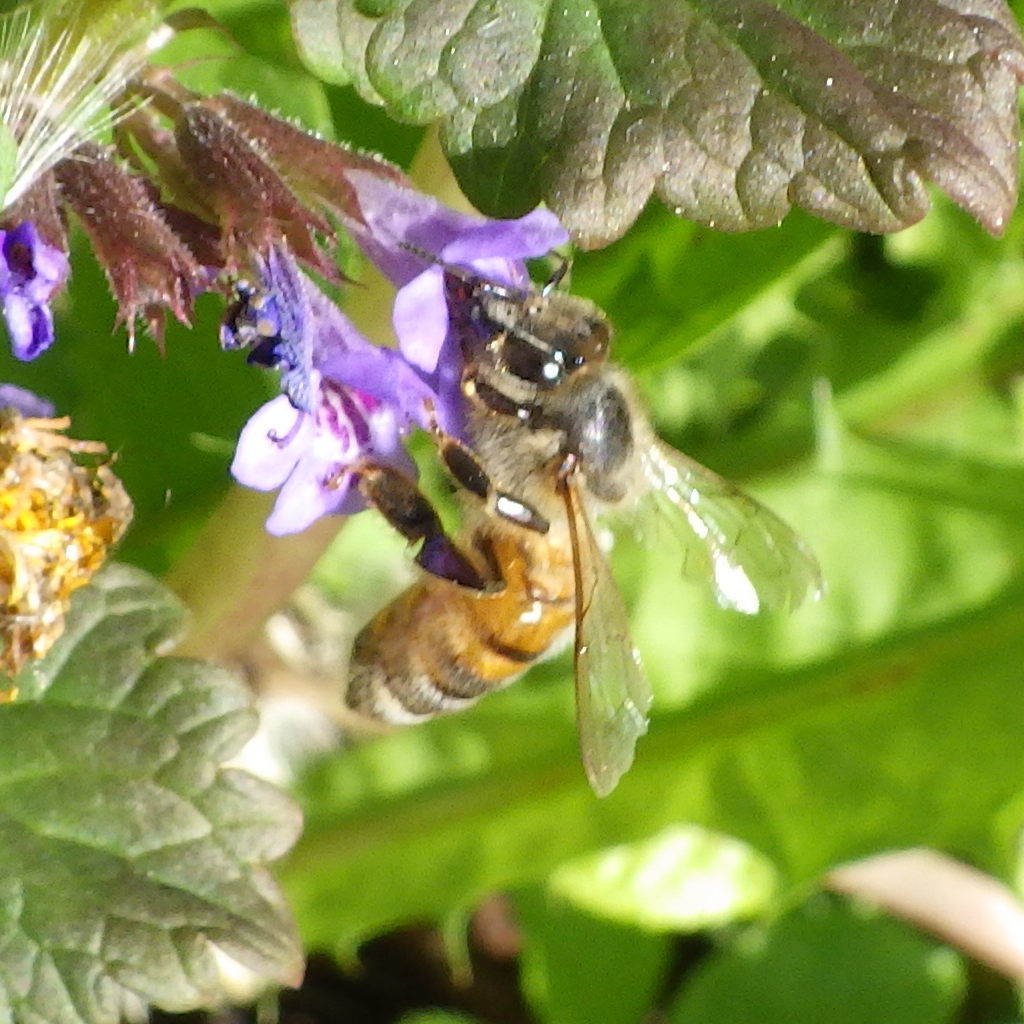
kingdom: Animalia
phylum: Arthropoda
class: Insecta
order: Hymenoptera
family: Apidae
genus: Apis
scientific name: Apis mellifera
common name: Honey bee
